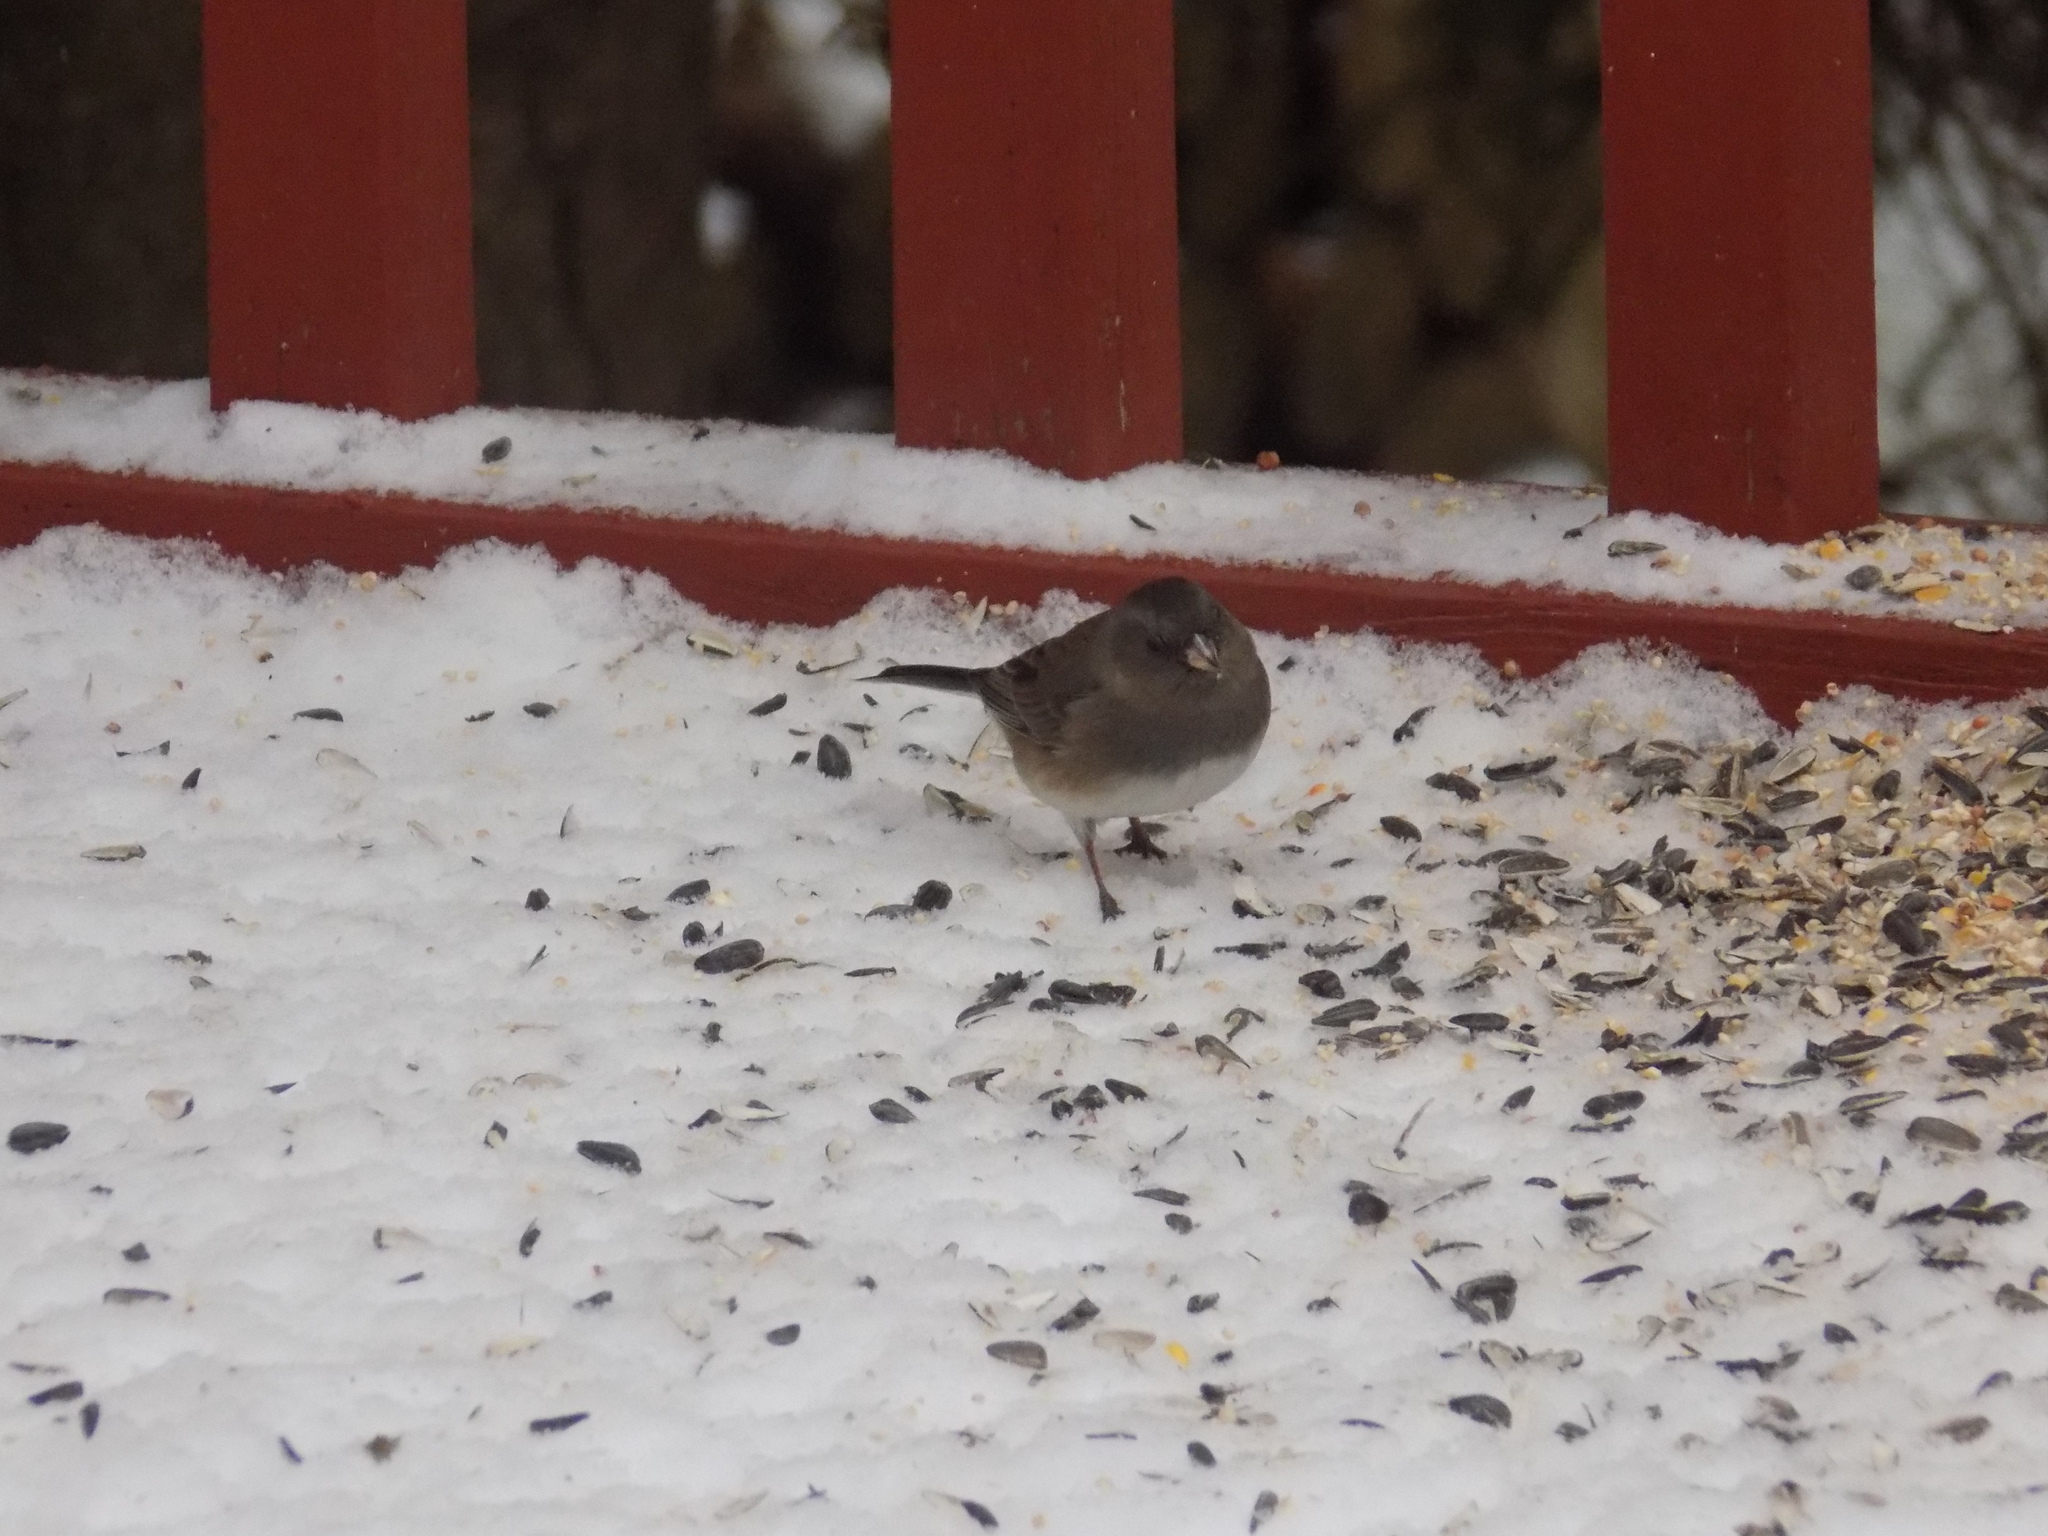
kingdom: Animalia
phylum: Chordata
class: Aves
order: Passeriformes
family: Passerellidae
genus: Junco
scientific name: Junco hyemalis
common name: Dark-eyed junco
